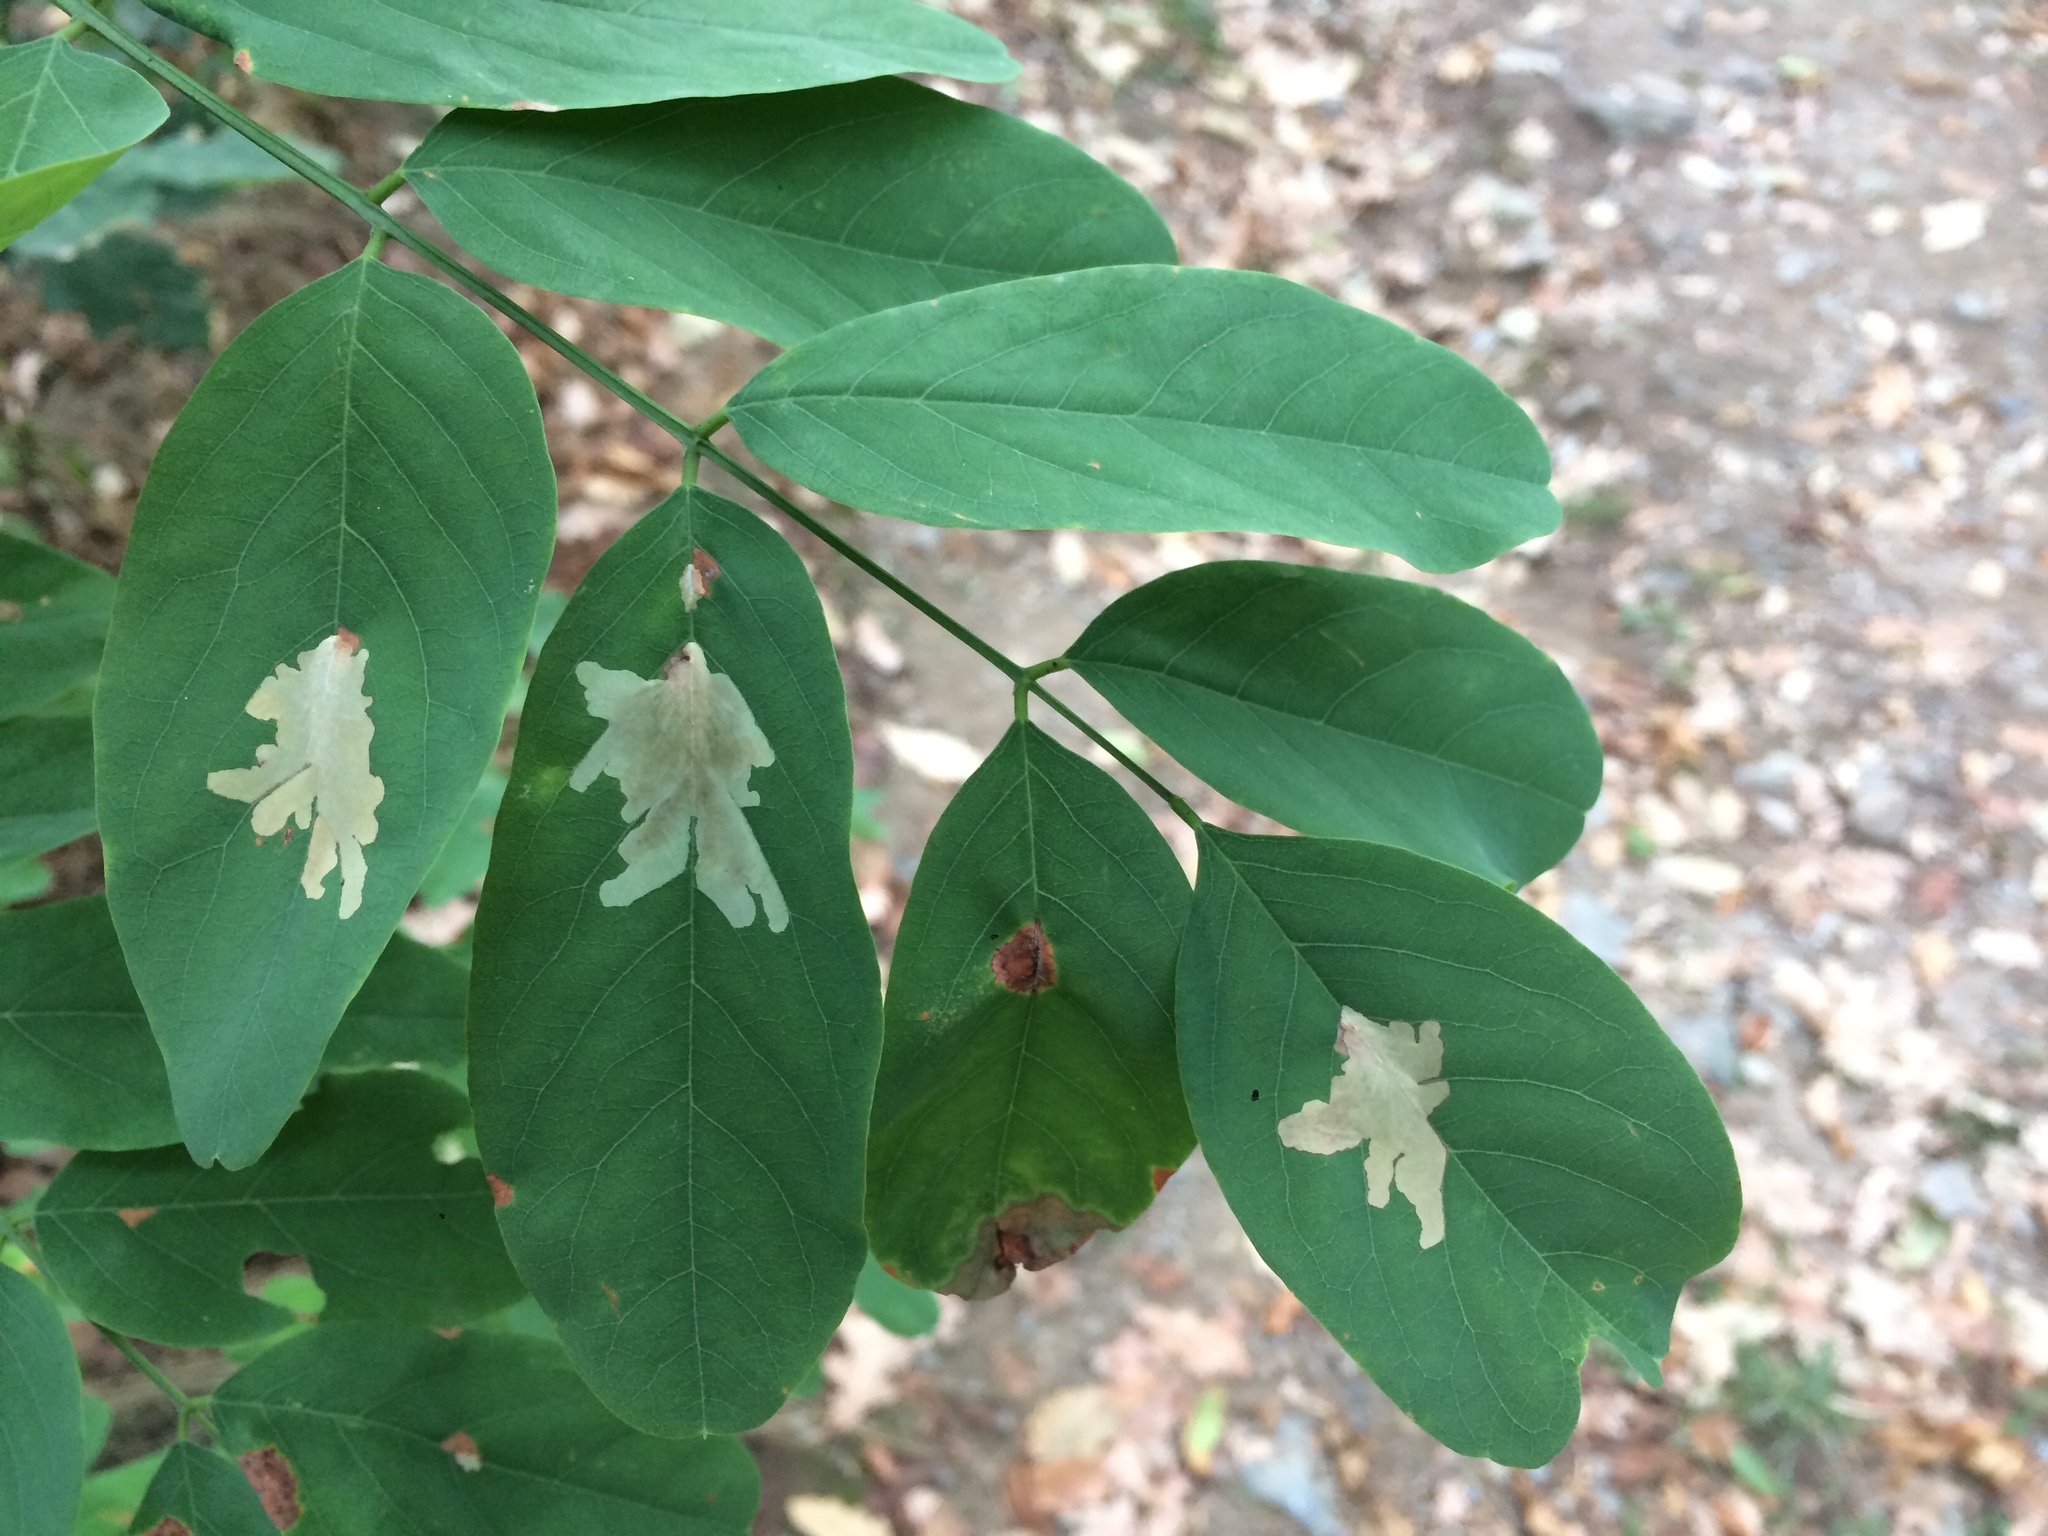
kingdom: Animalia
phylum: Arthropoda
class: Insecta
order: Lepidoptera
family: Gracillariidae
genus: Parectopa
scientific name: Parectopa robiniella
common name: Locust digitate leafminer
